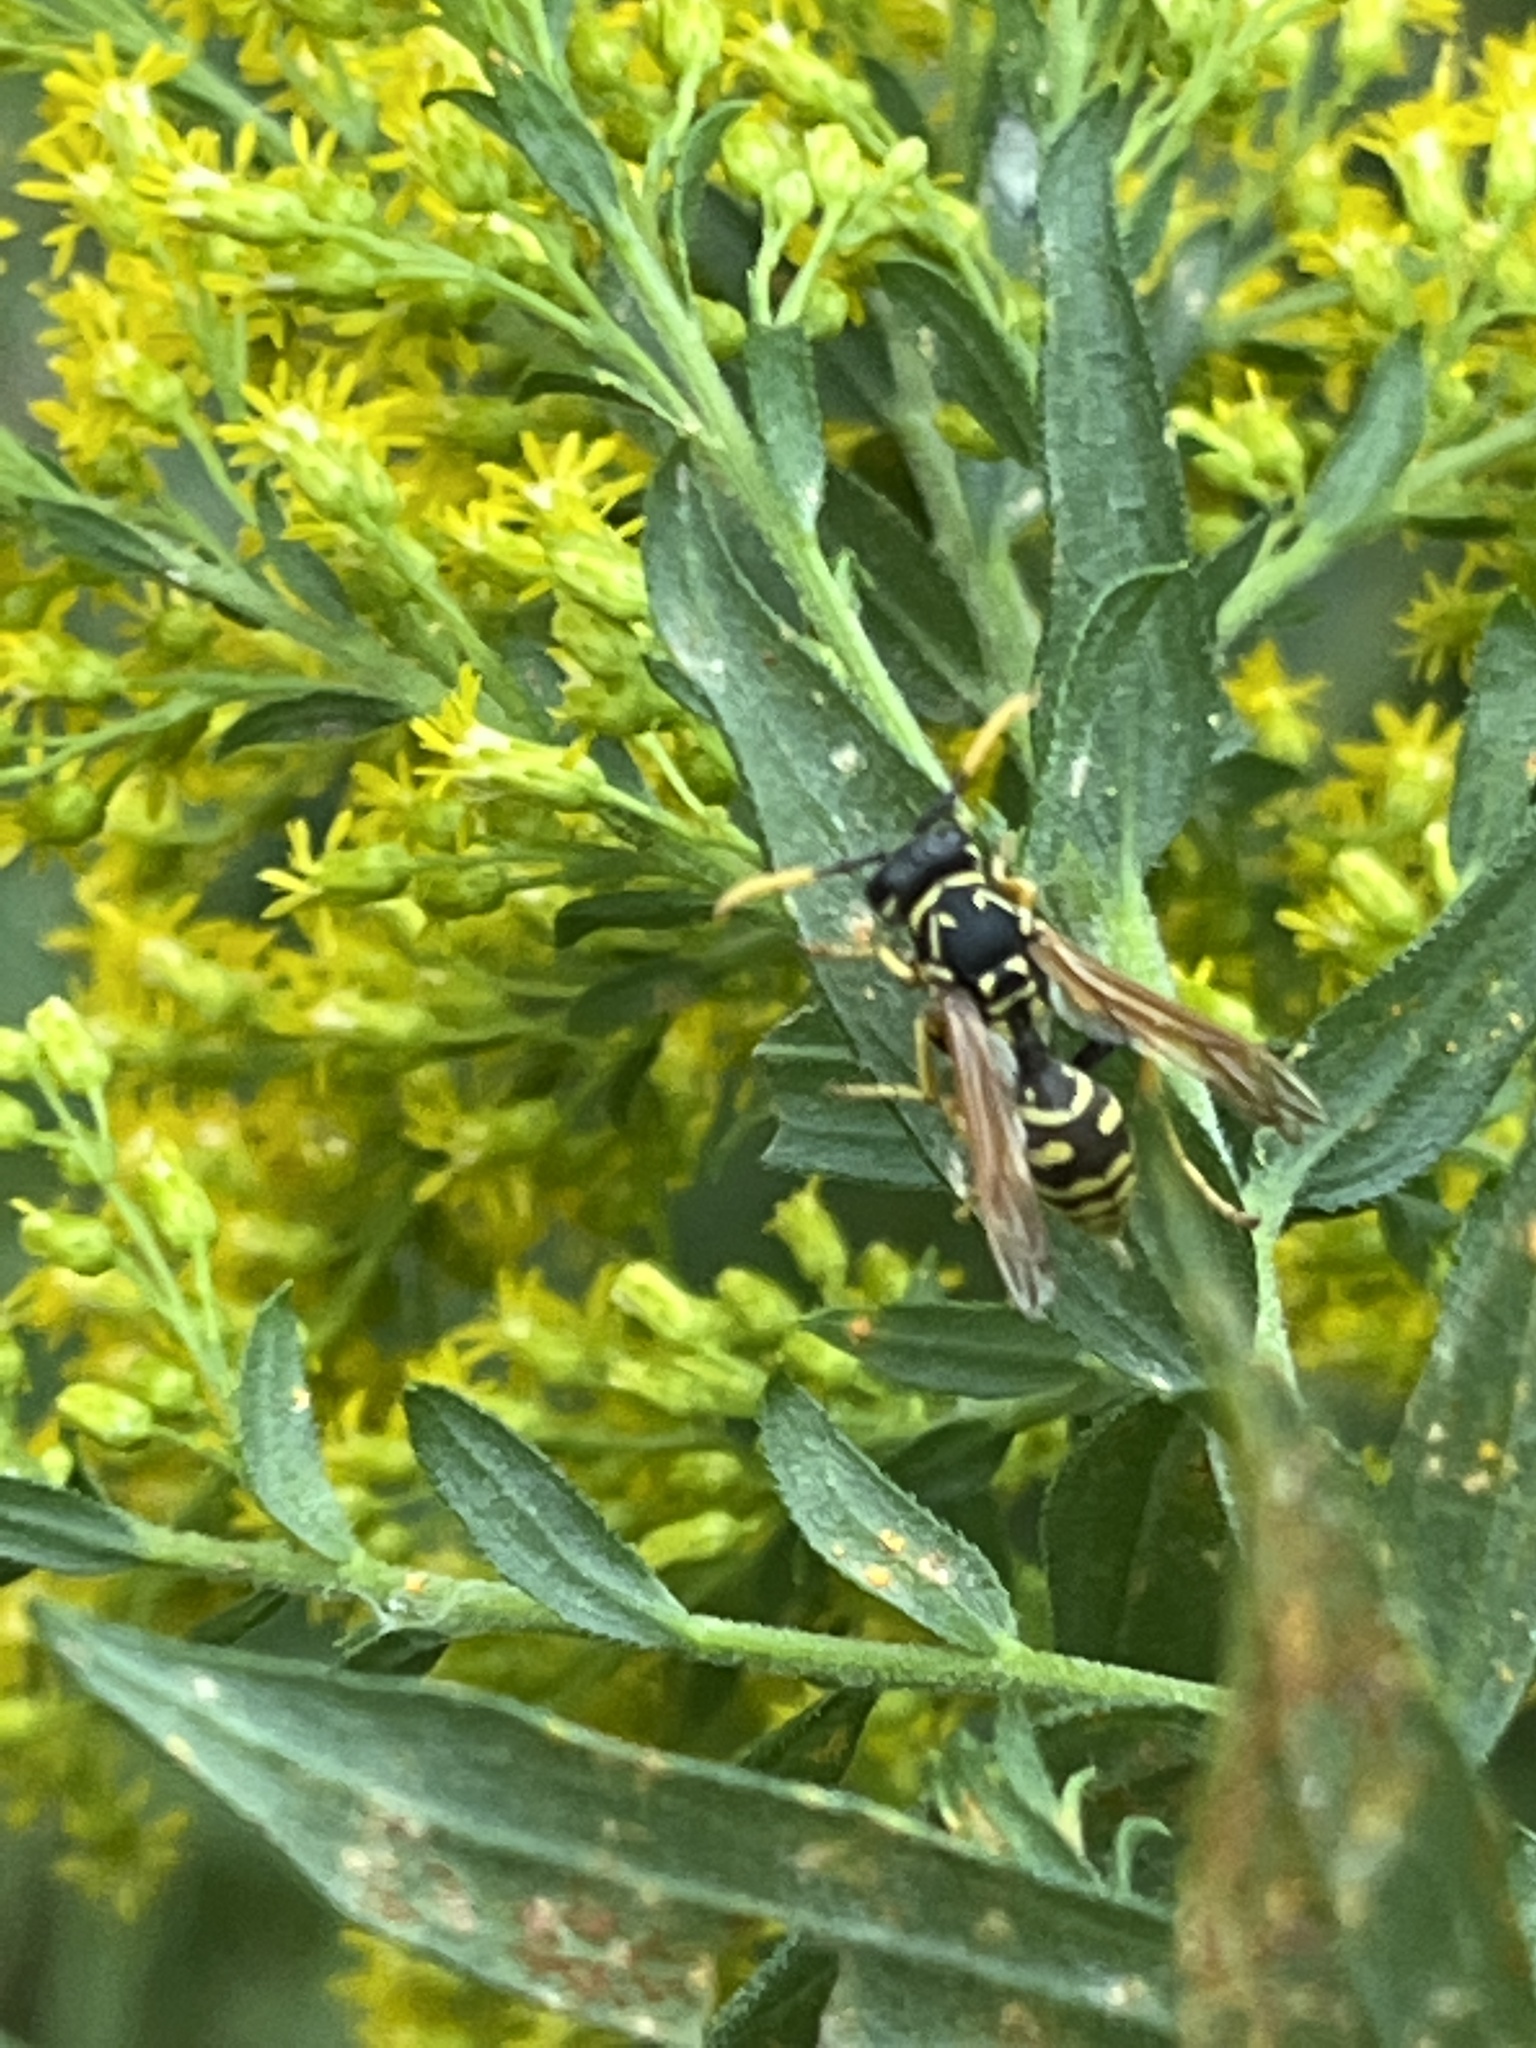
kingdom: Animalia
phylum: Arthropoda
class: Insecta
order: Hymenoptera
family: Eumenidae
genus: Polistes
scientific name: Polistes dominula
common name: Paper wasp
